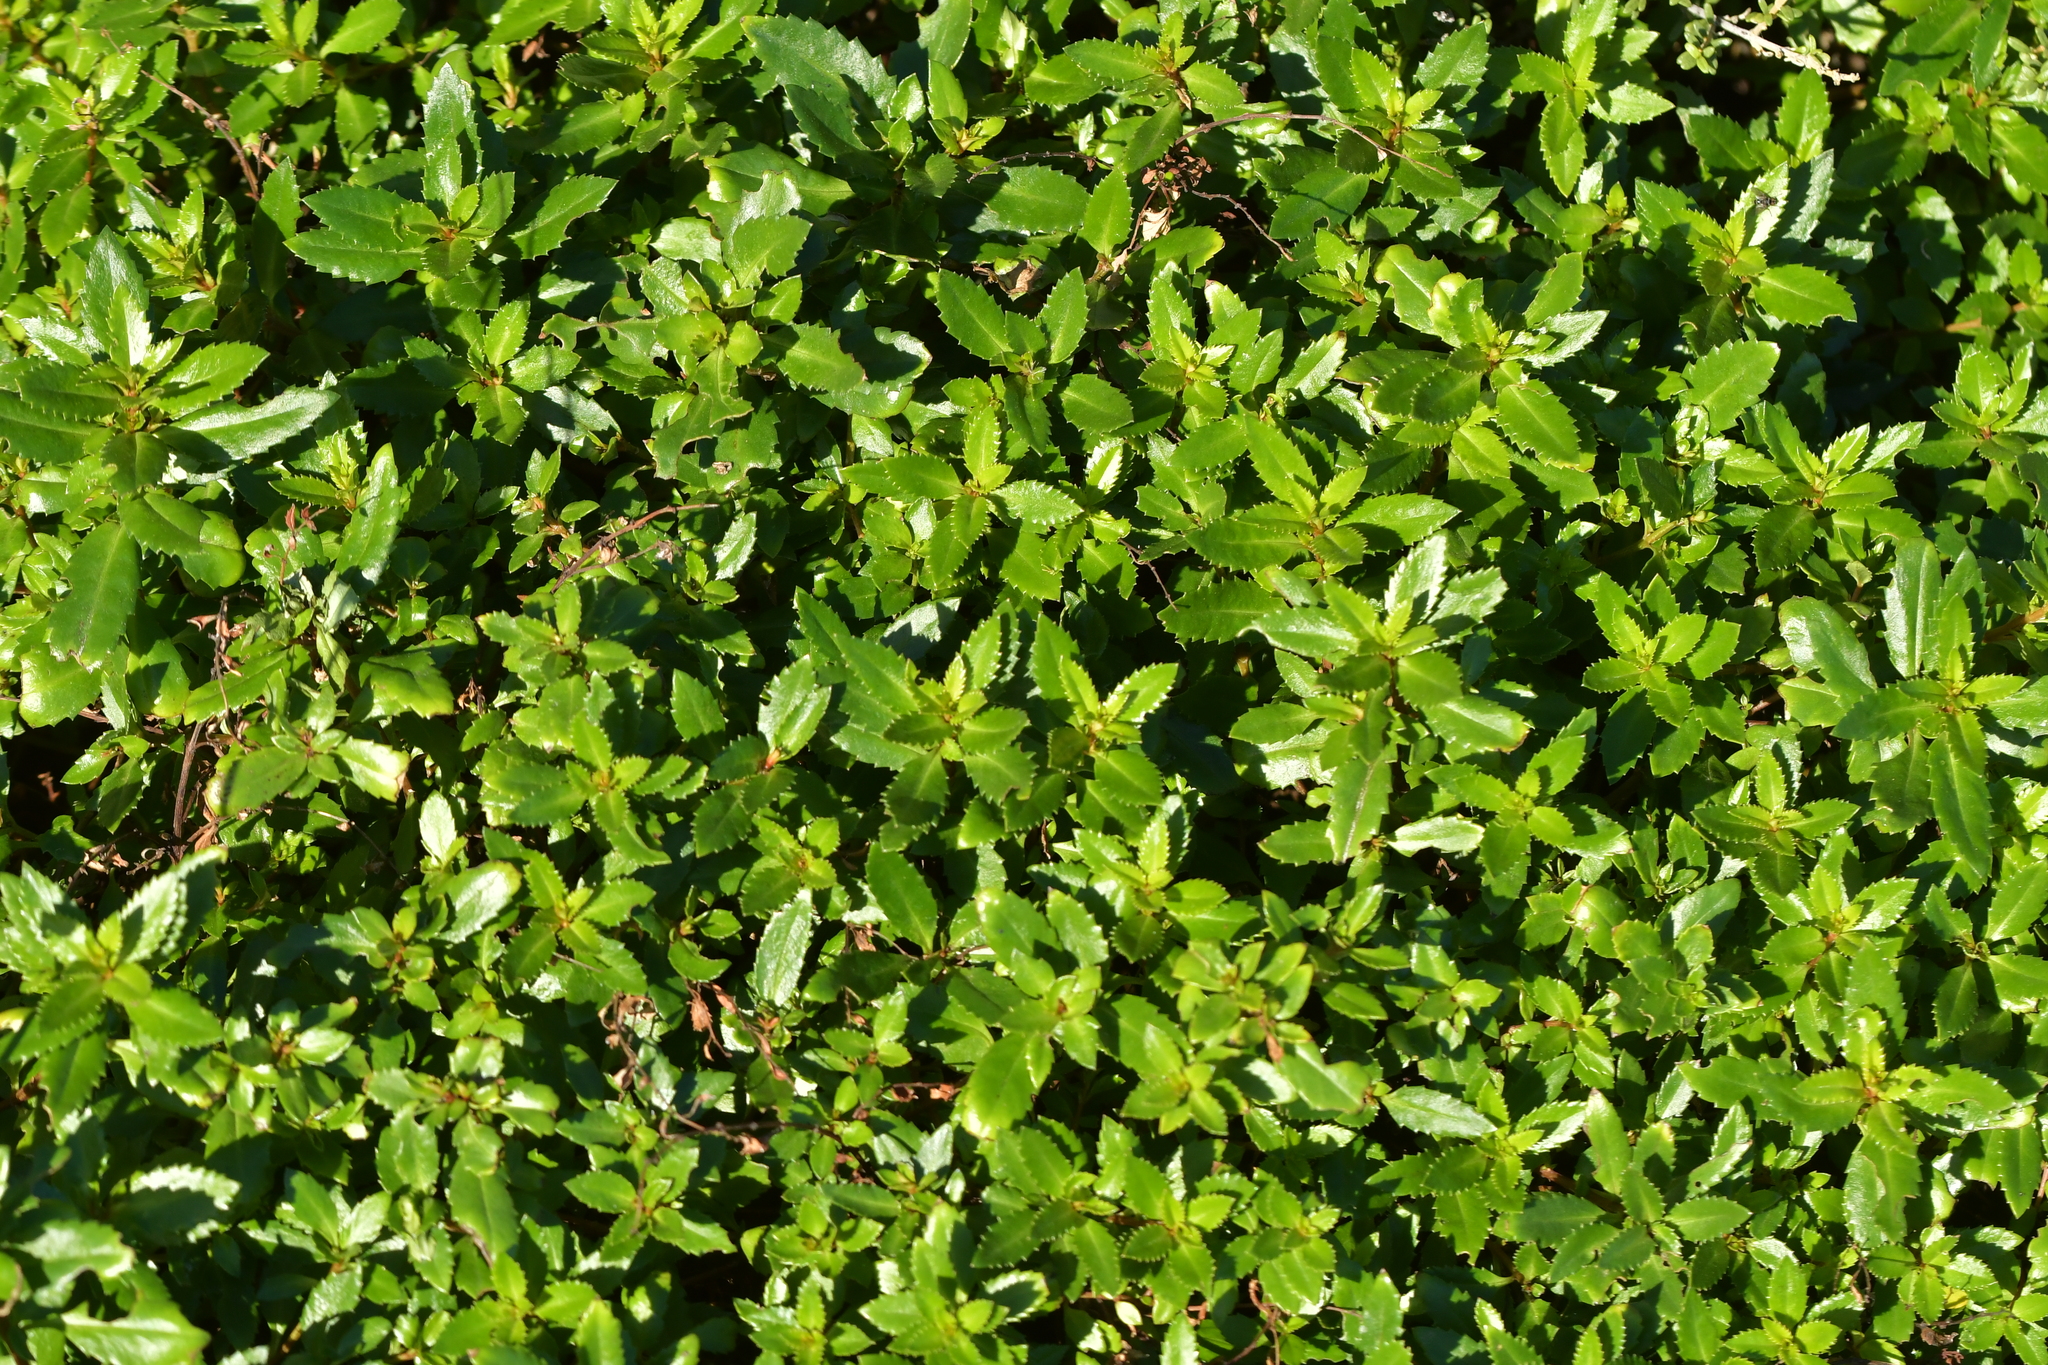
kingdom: Plantae
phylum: Tracheophyta
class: Magnoliopsida
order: Saxifragales
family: Haloragaceae
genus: Haloragis
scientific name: Haloragis erecta
